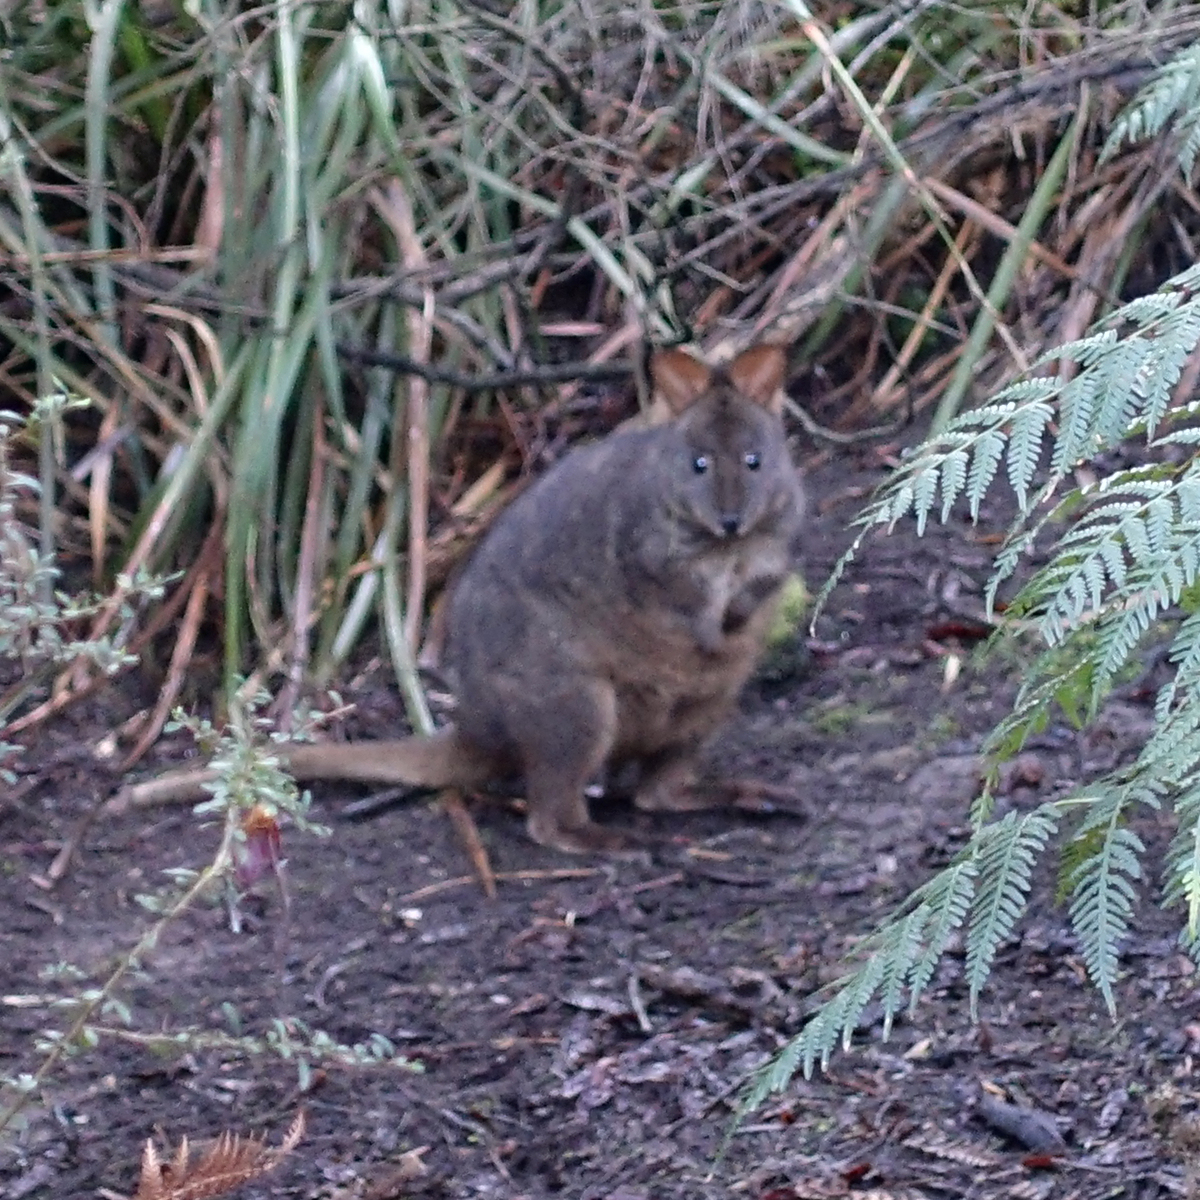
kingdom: Animalia
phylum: Chordata
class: Mammalia
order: Diprotodontia
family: Macropodidae
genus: Thylogale
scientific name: Thylogale billardierii
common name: Tasmanian pademelon
